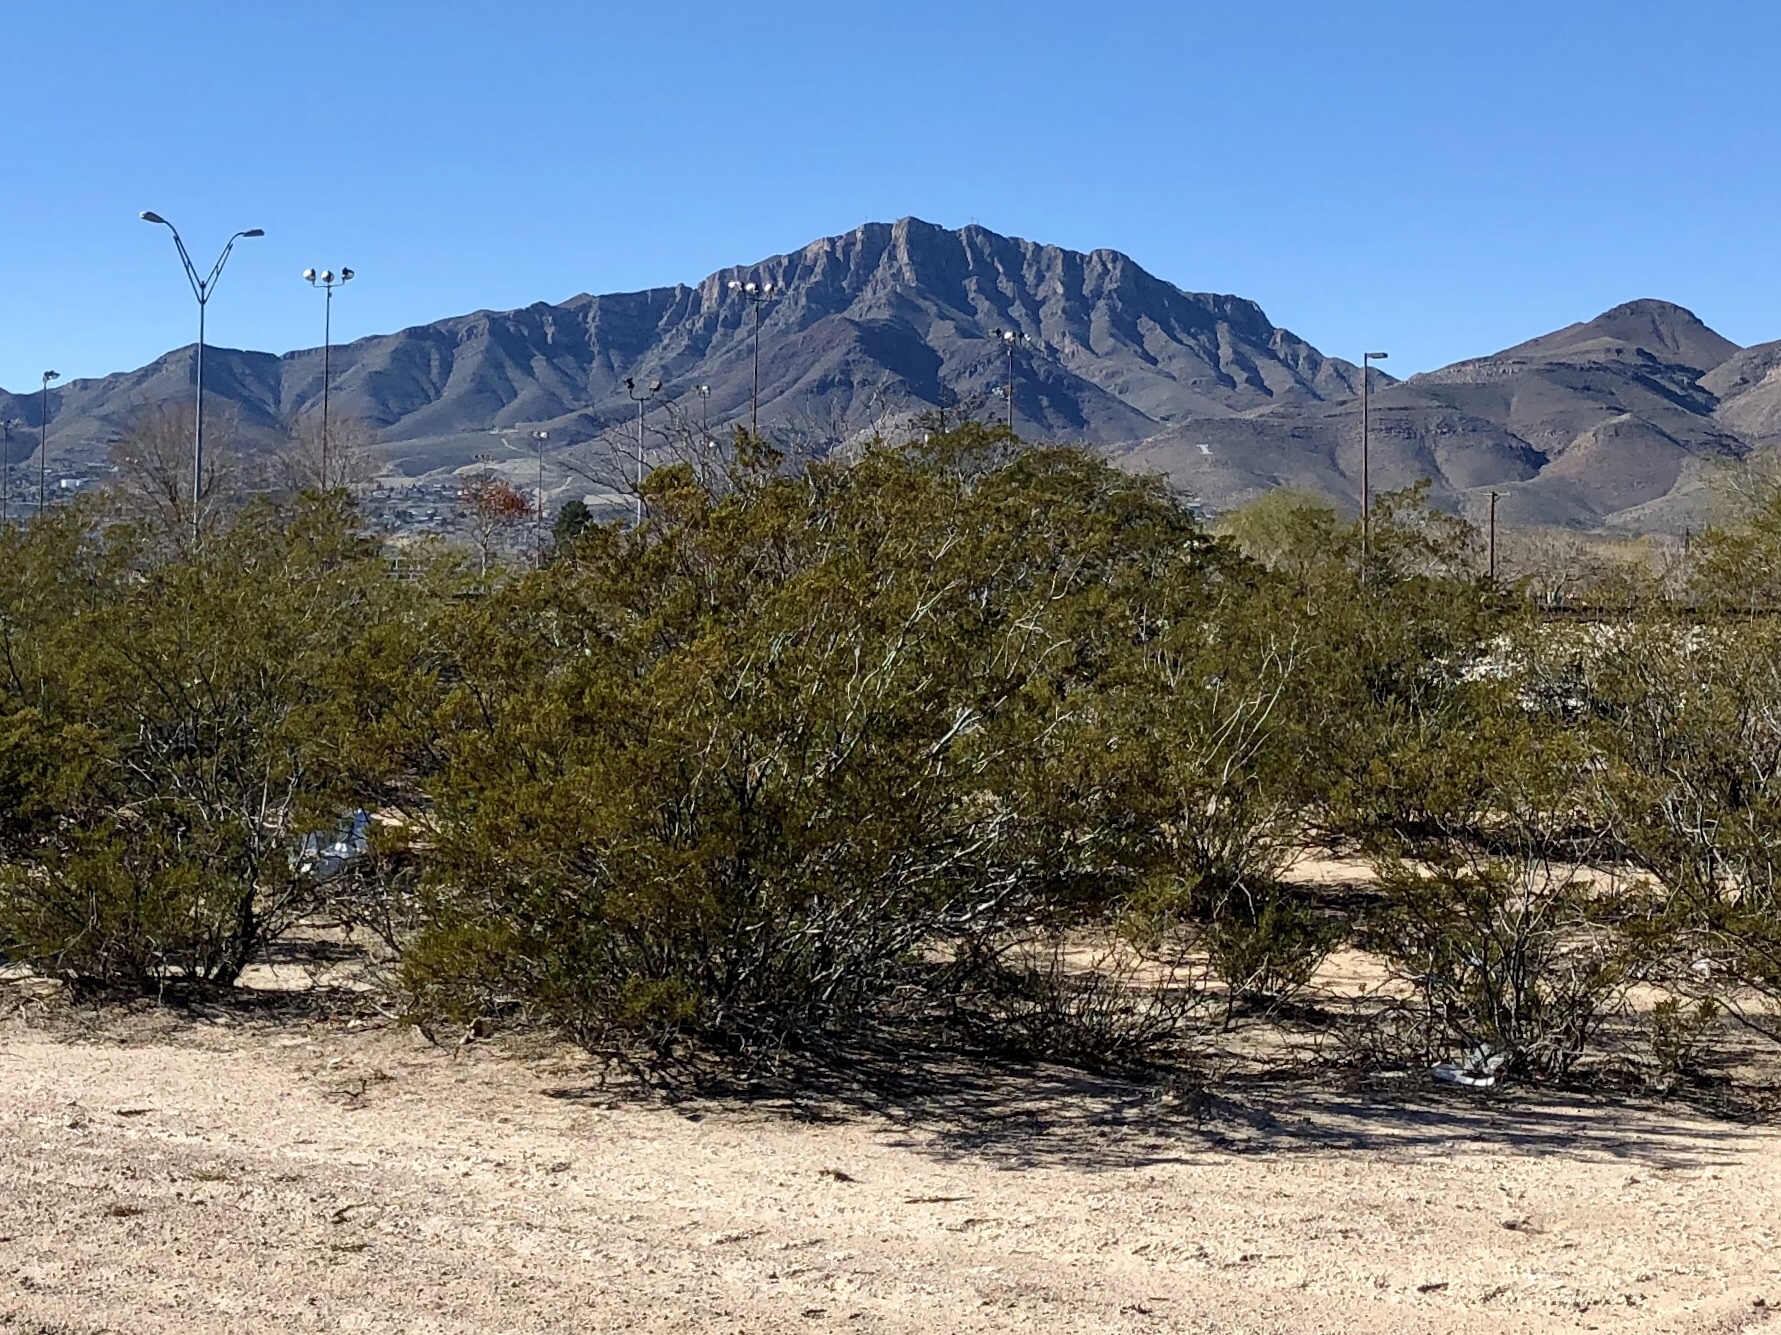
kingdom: Plantae
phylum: Tracheophyta
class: Magnoliopsida
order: Zygophyllales
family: Zygophyllaceae
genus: Larrea
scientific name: Larrea tridentata
